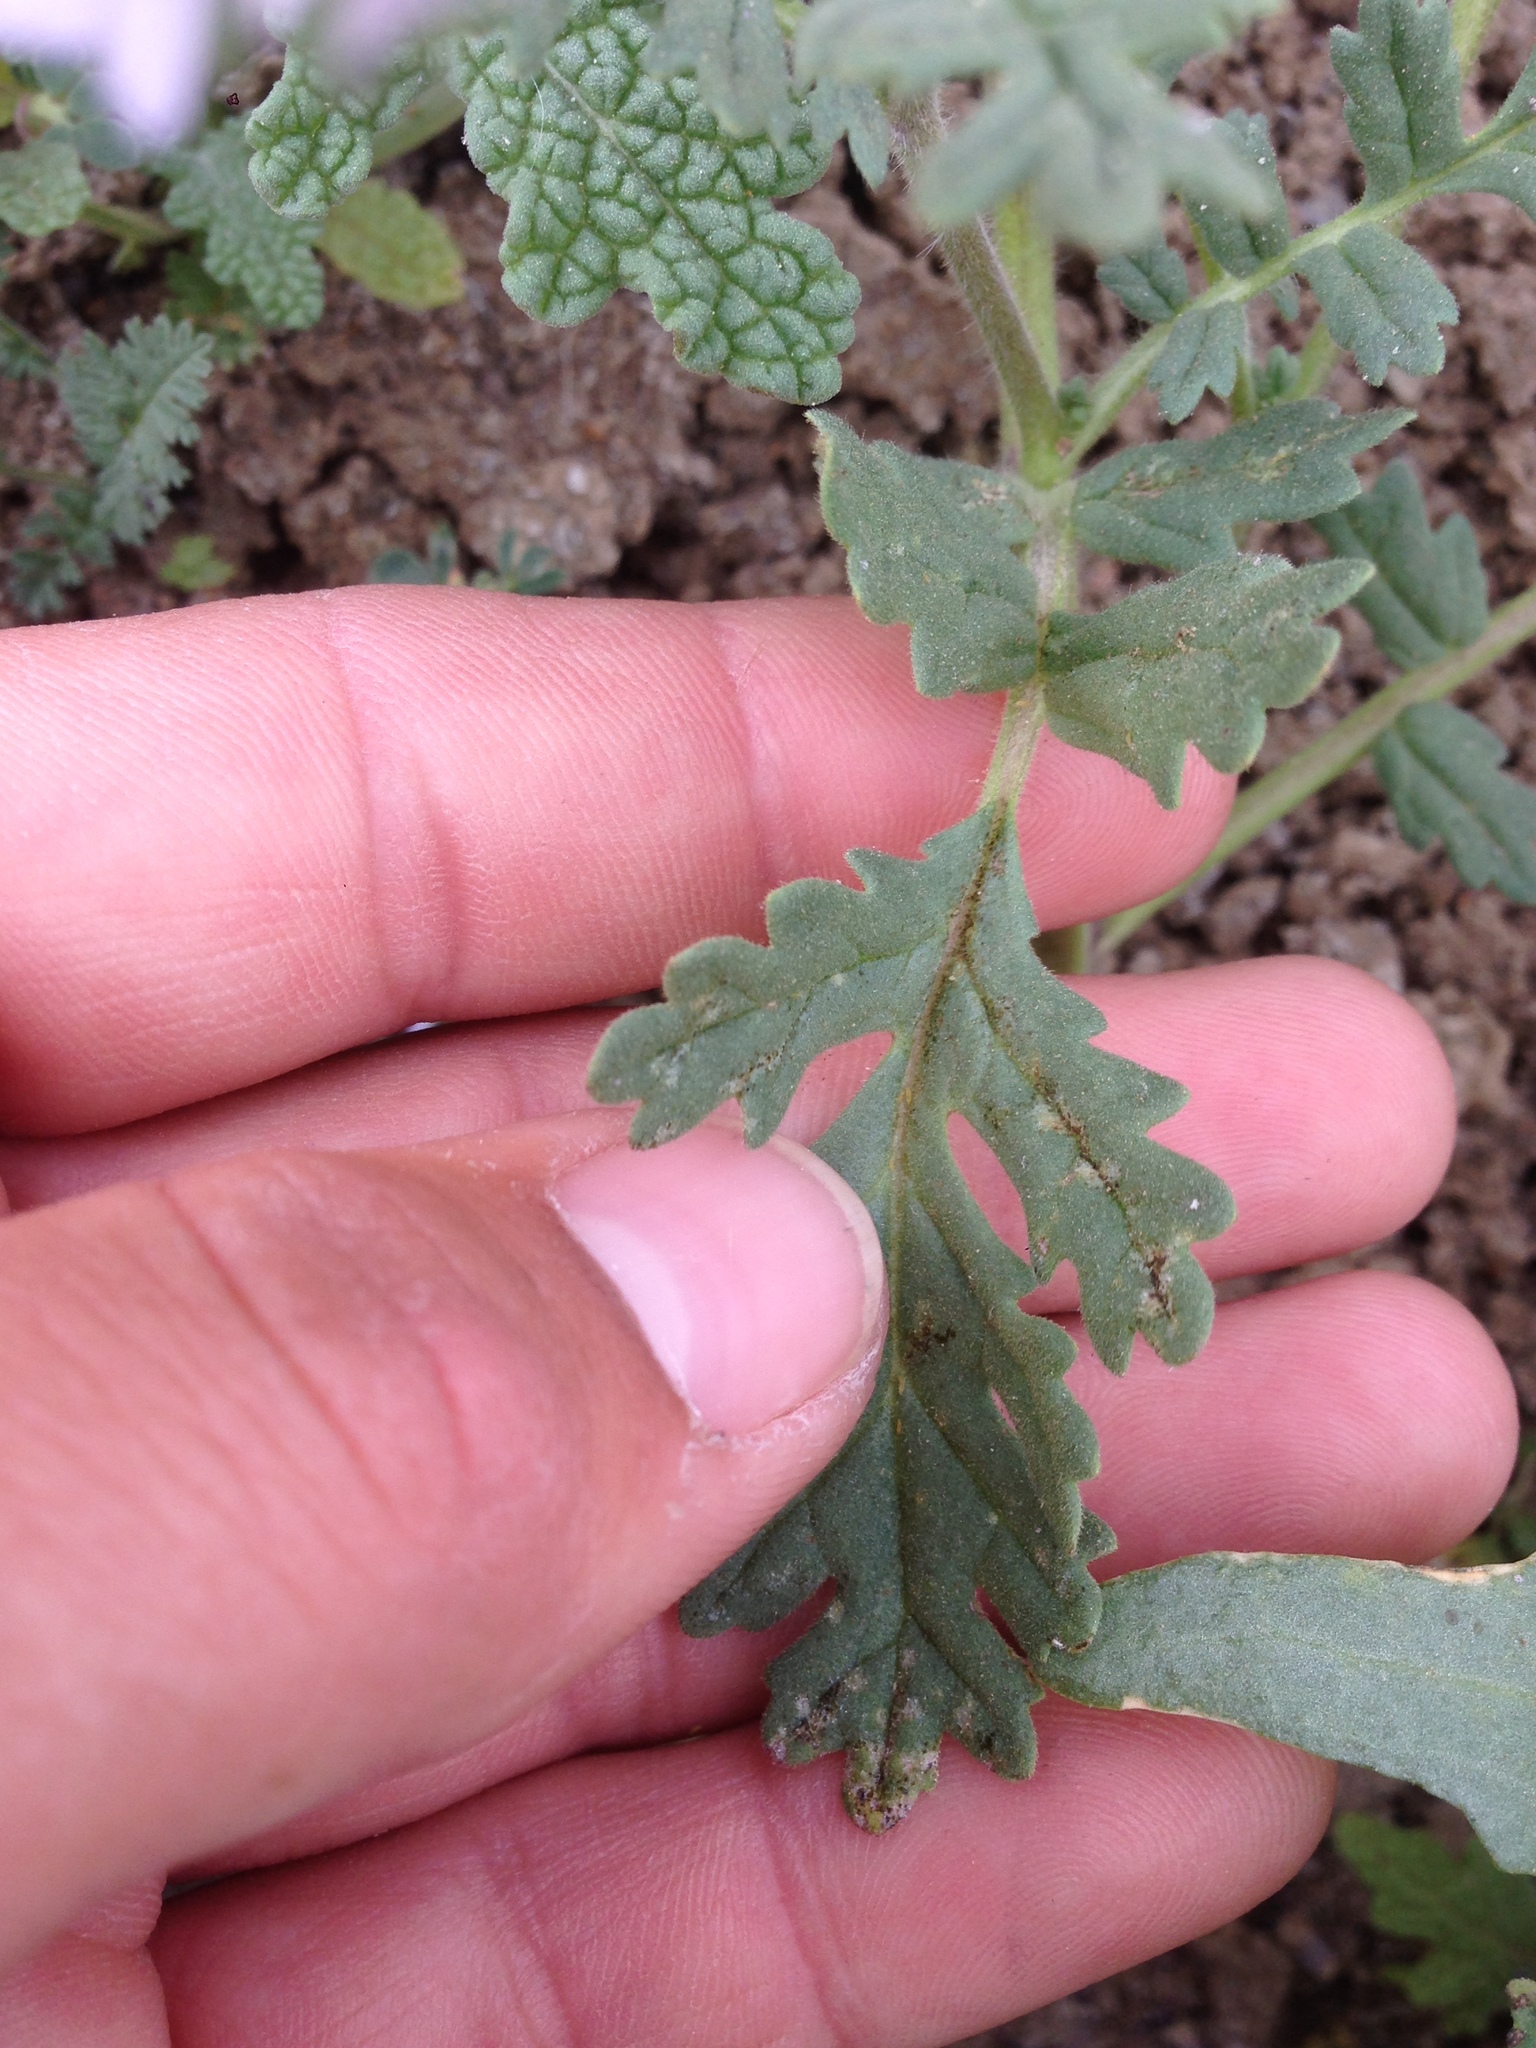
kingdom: Plantae
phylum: Tracheophyta
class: Magnoliopsida
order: Boraginales
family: Hydrophyllaceae
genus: Phacelia
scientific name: Phacelia ciliata
